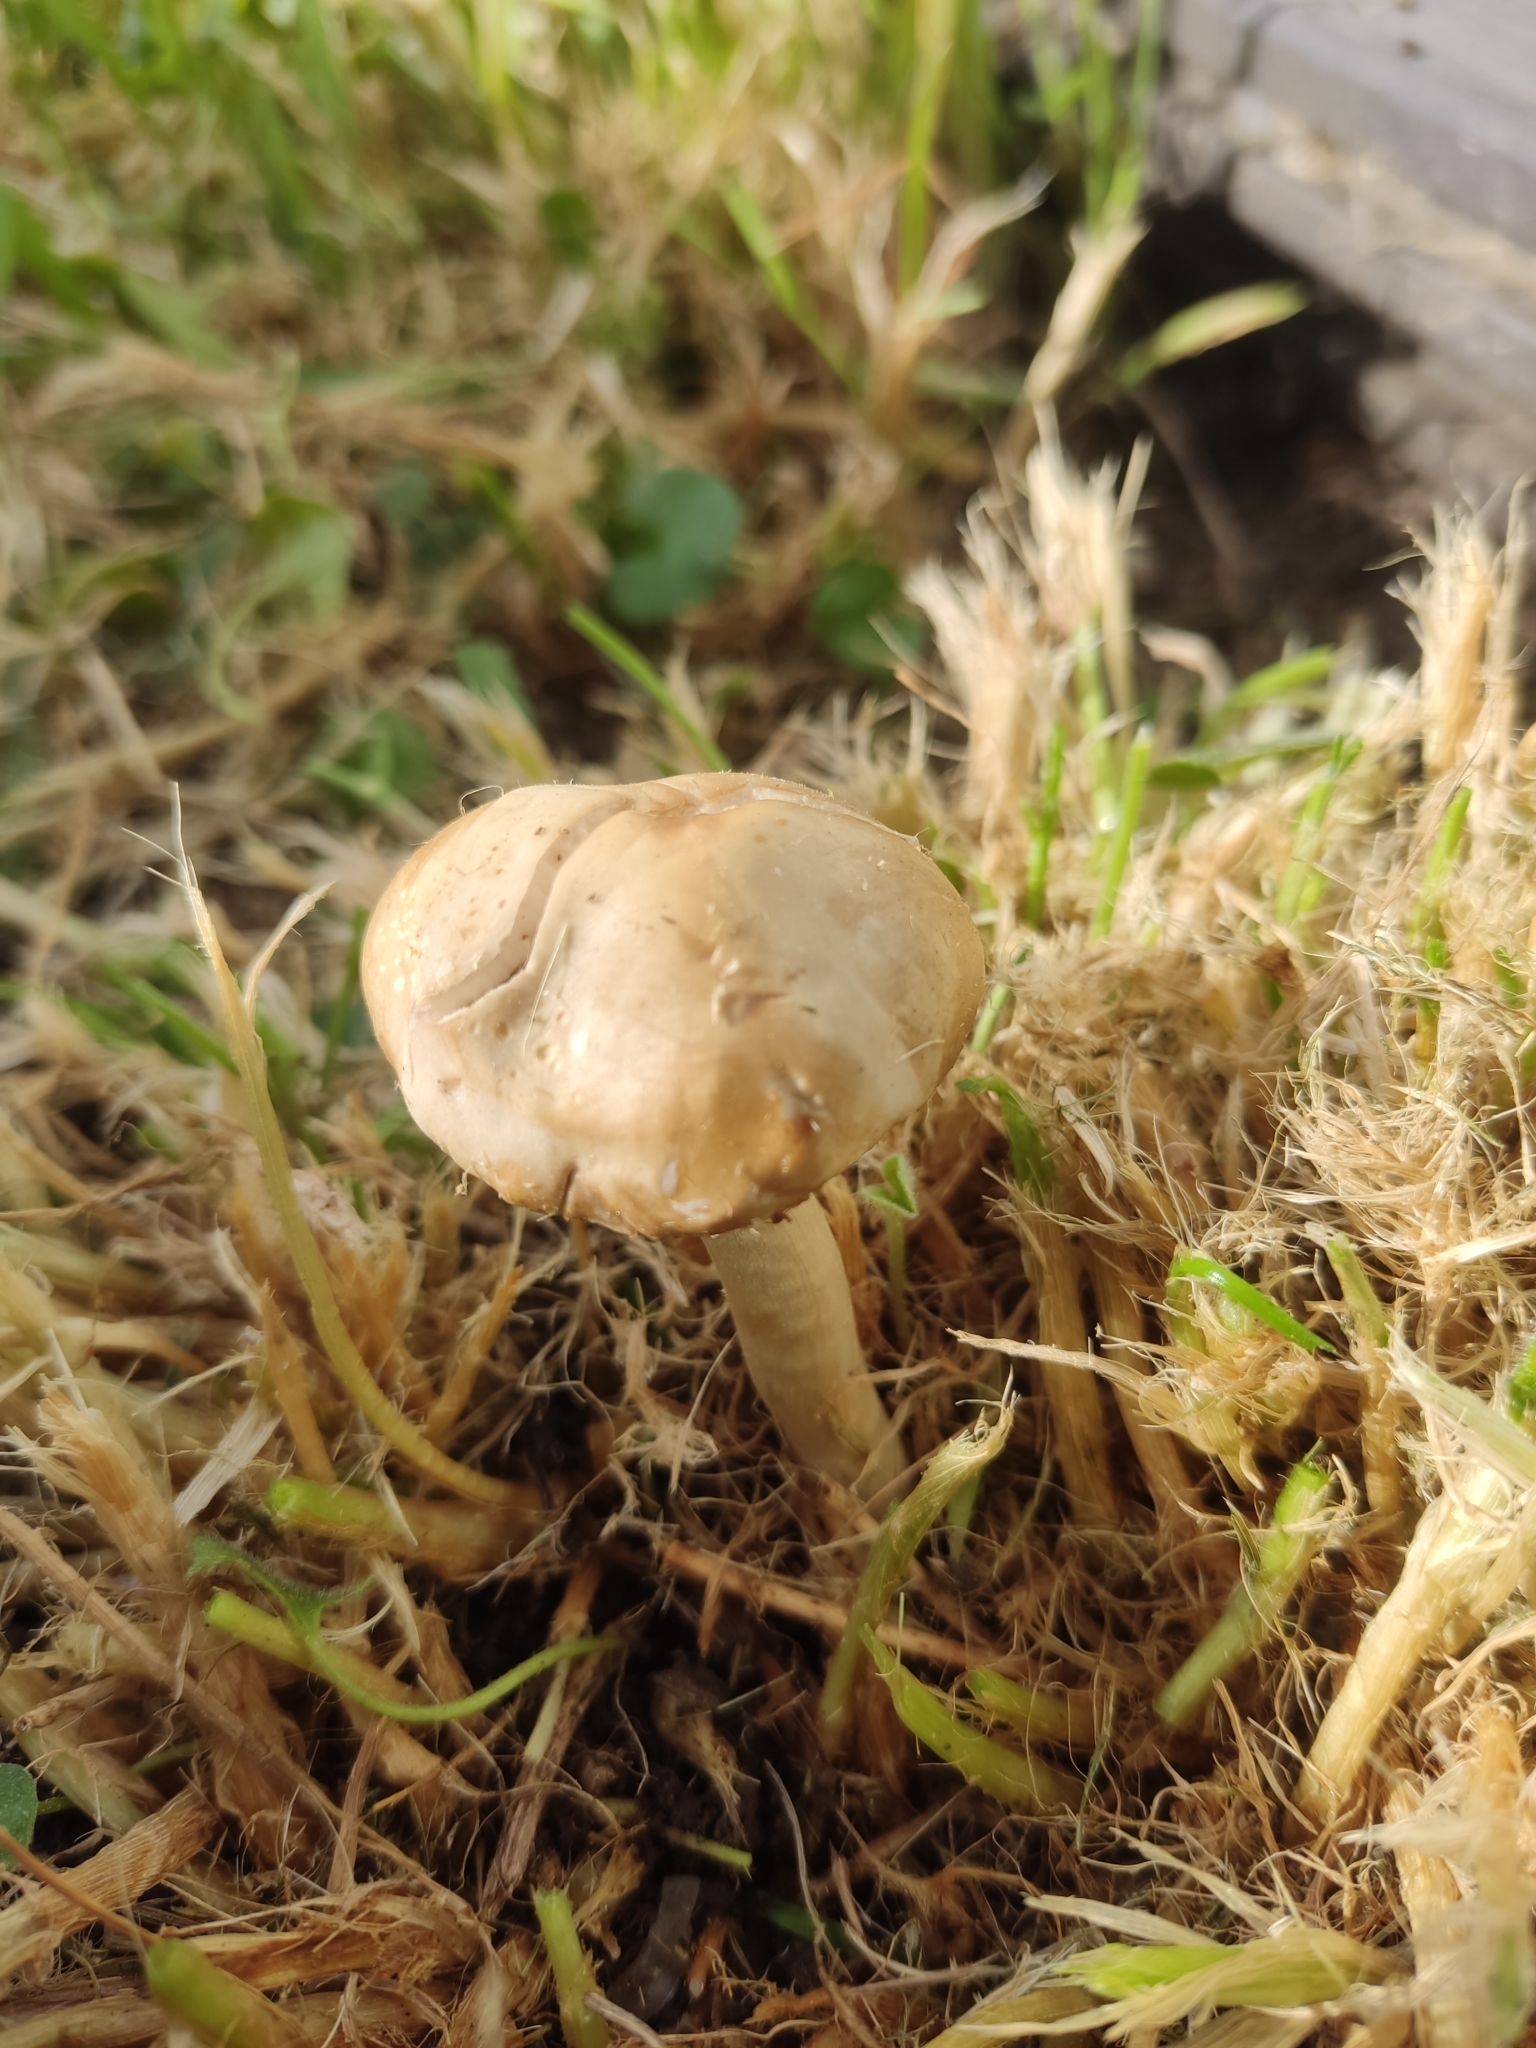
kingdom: Fungi
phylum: Basidiomycota
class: Agaricomycetes
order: Agaricales
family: Strophariaceae
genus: Agrocybe
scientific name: Agrocybe praecox
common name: Spring fieldcap
